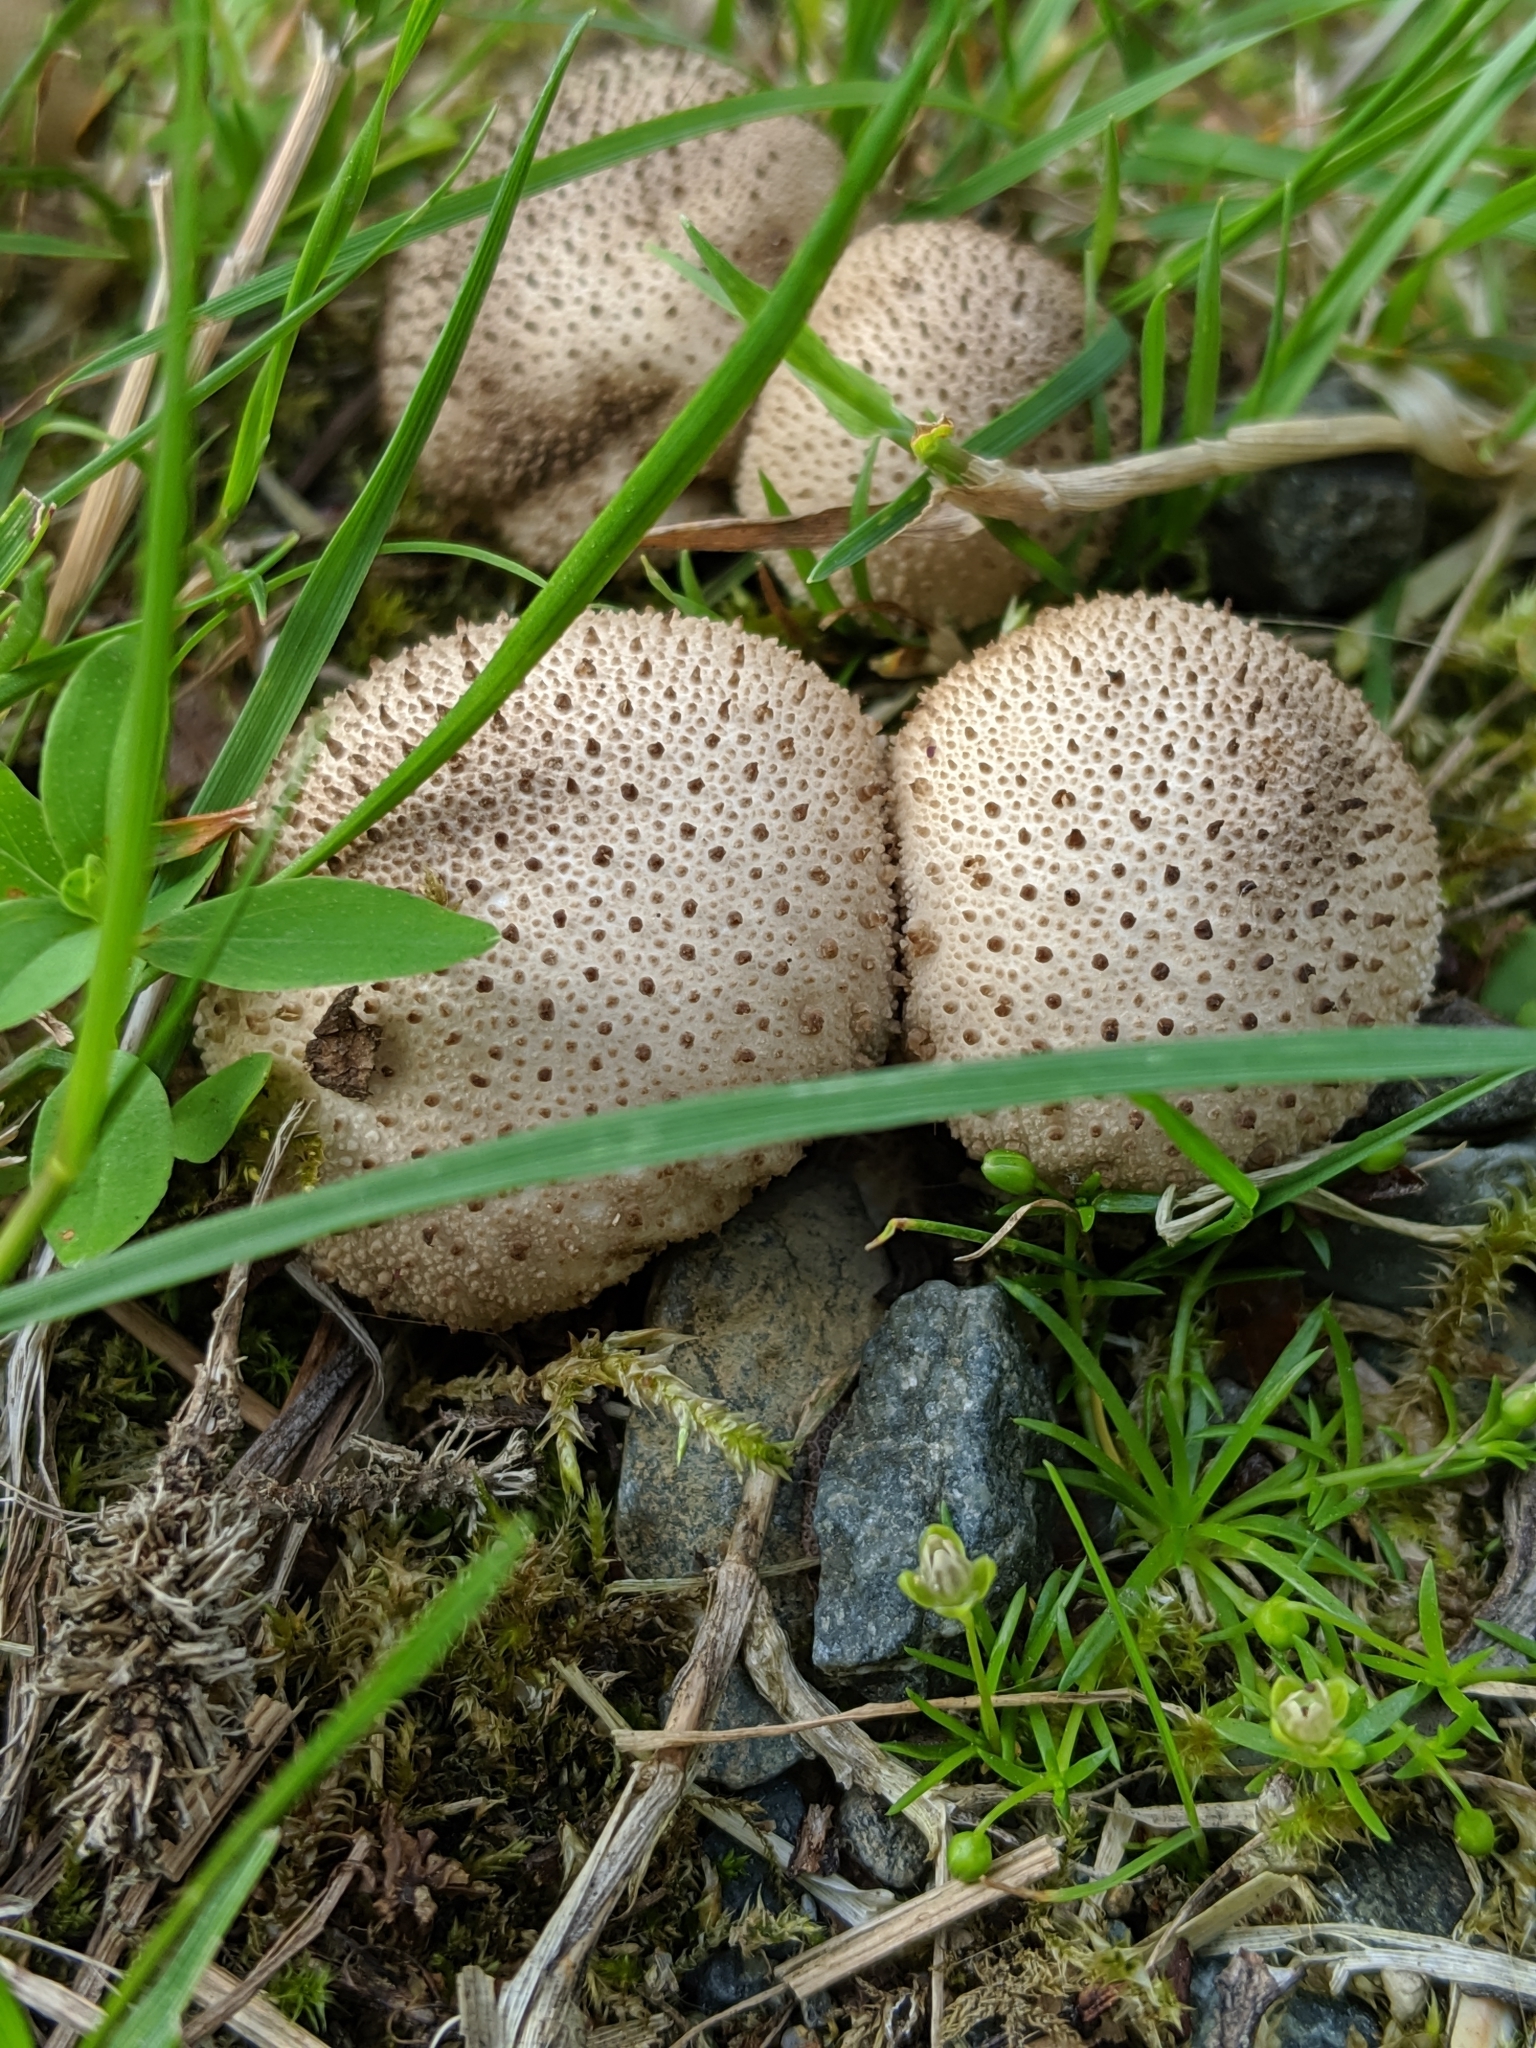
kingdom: Fungi
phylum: Basidiomycota
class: Agaricomycetes
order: Agaricales
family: Lycoperdaceae
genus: Lycoperdon
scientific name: Lycoperdon perlatum
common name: Common puffball
